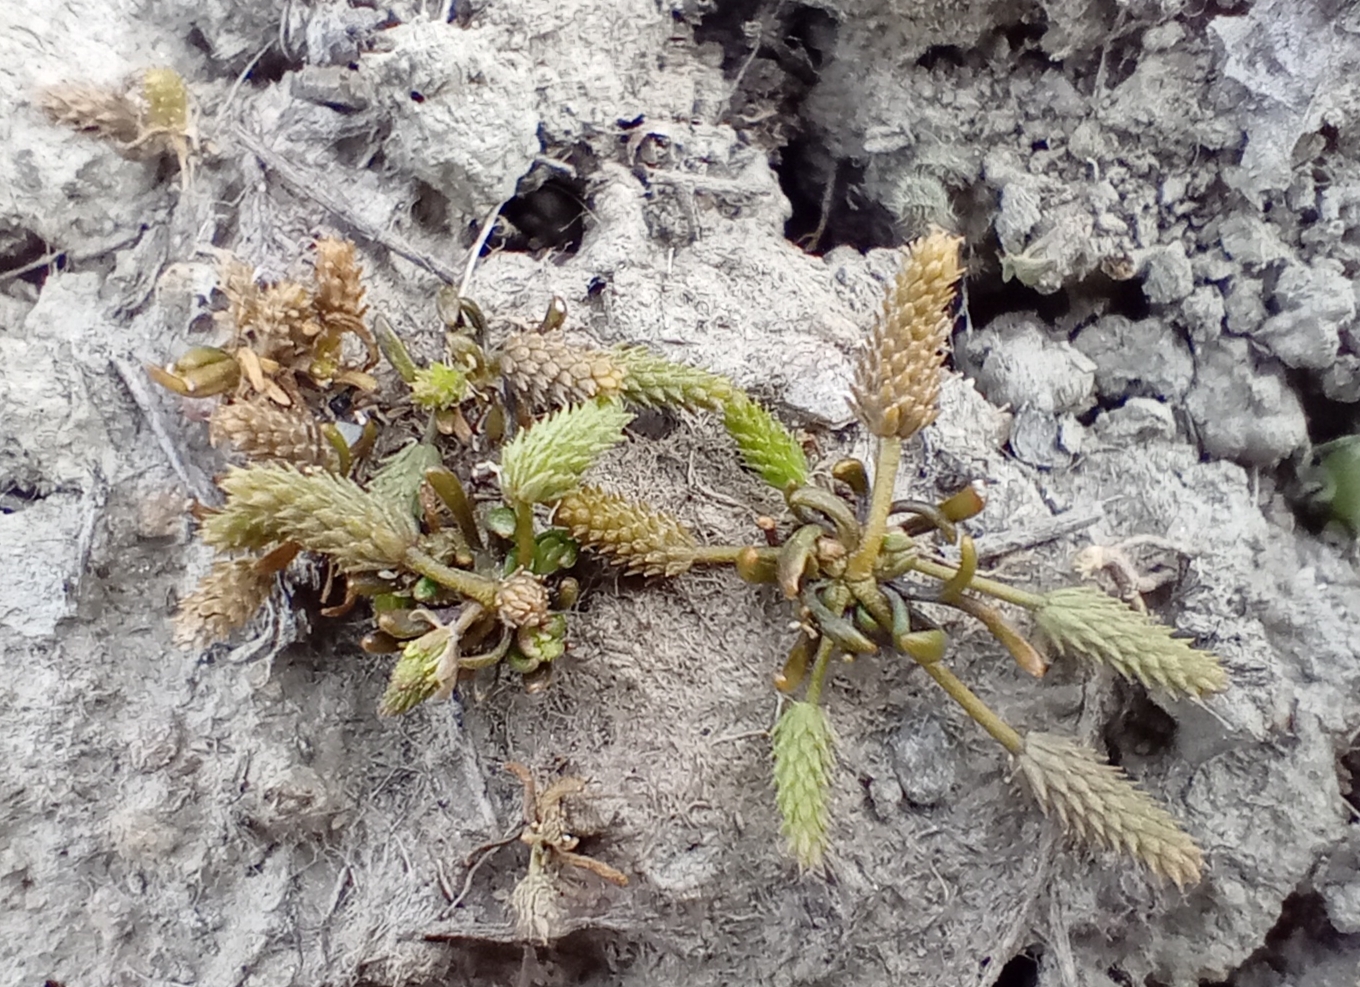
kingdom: Plantae
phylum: Tracheophyta
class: Magnoliopsida
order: Ranunculales
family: Ranunculaceae
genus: Myosurus
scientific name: Myosurus minimus
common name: Mousetail
